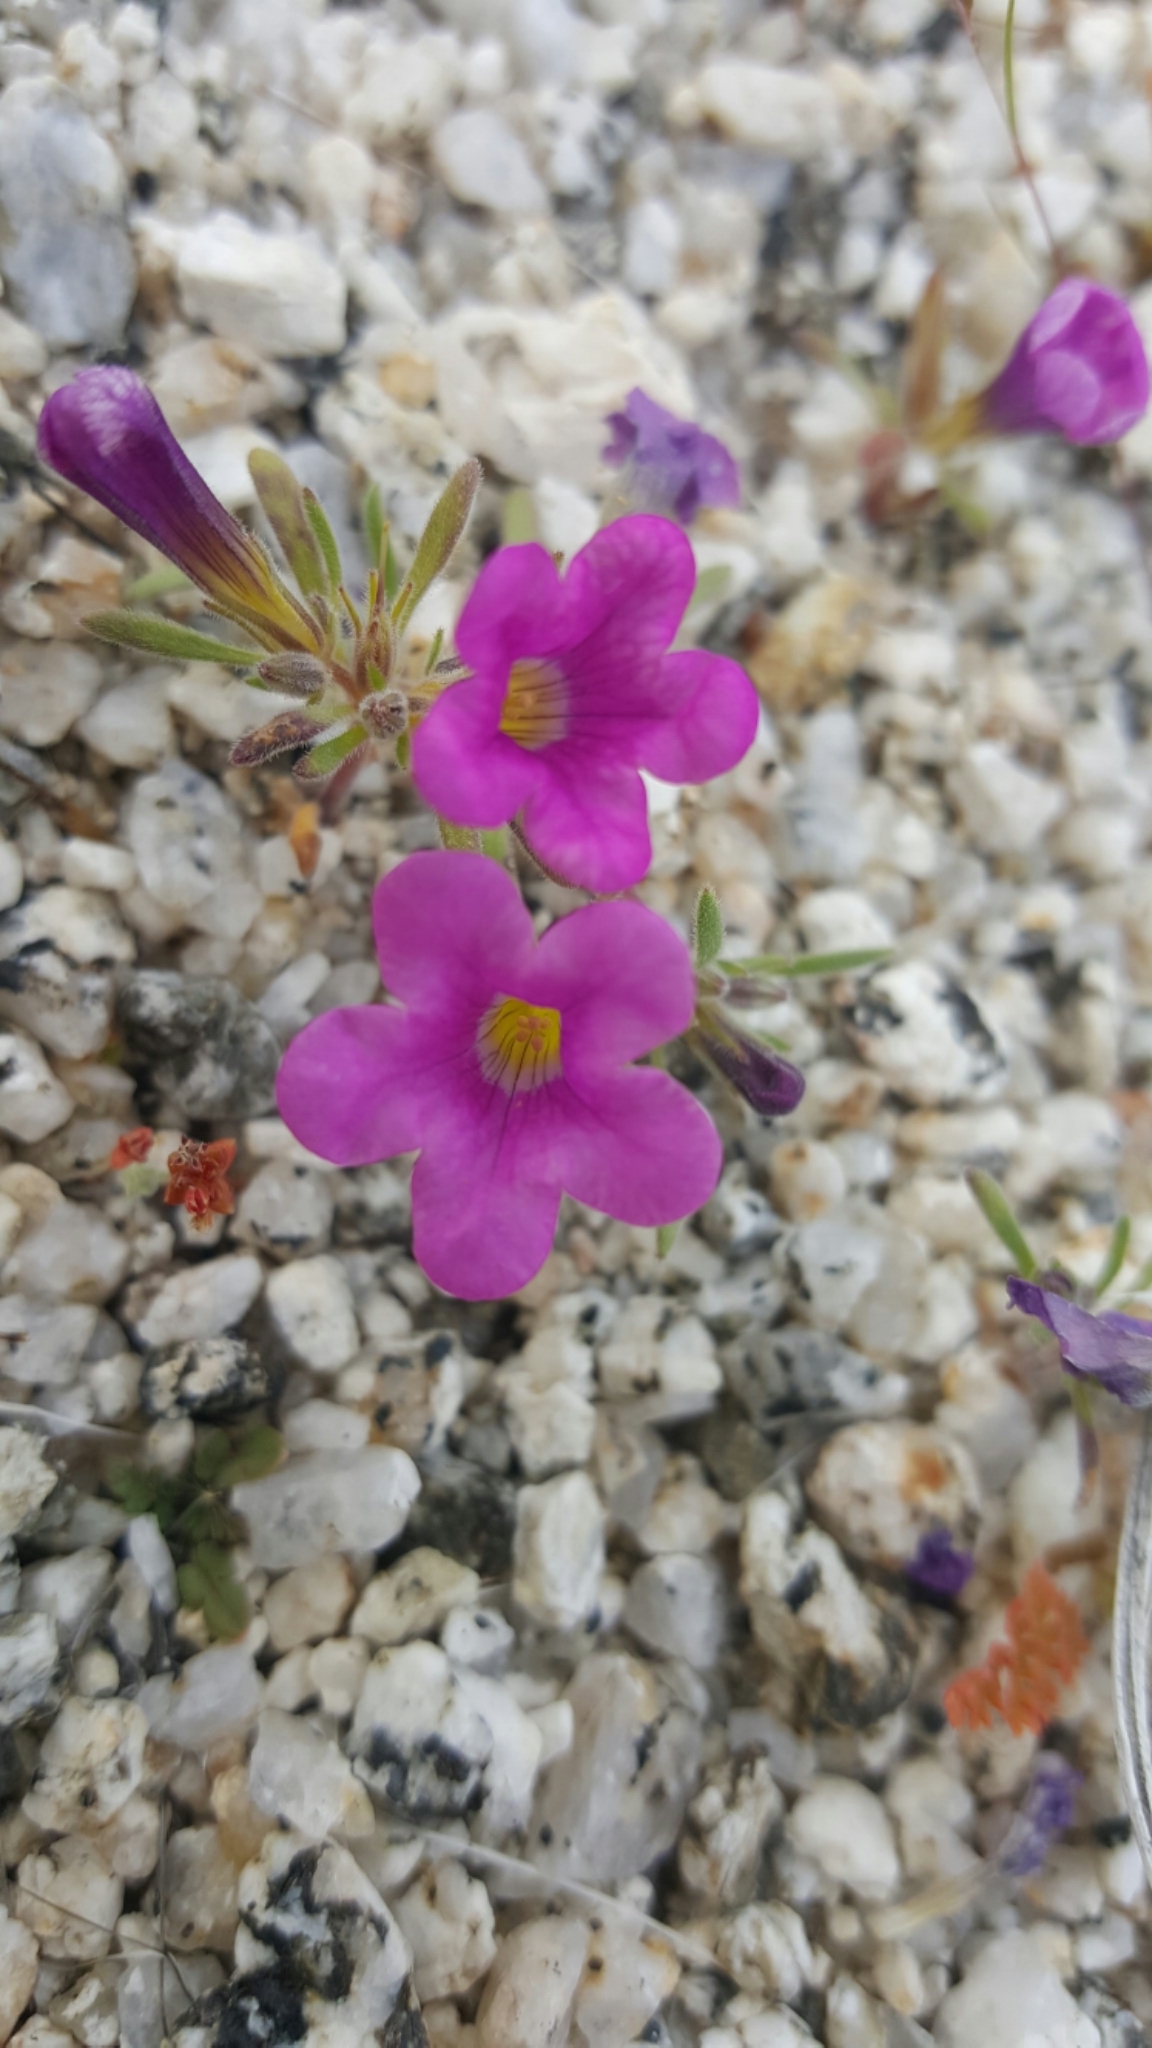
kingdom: Plantae
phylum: Tracheophyta
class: Magnoliopsida
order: Boraginales
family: Namaceae
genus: Nama
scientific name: Nama demissa
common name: Leafy nama
